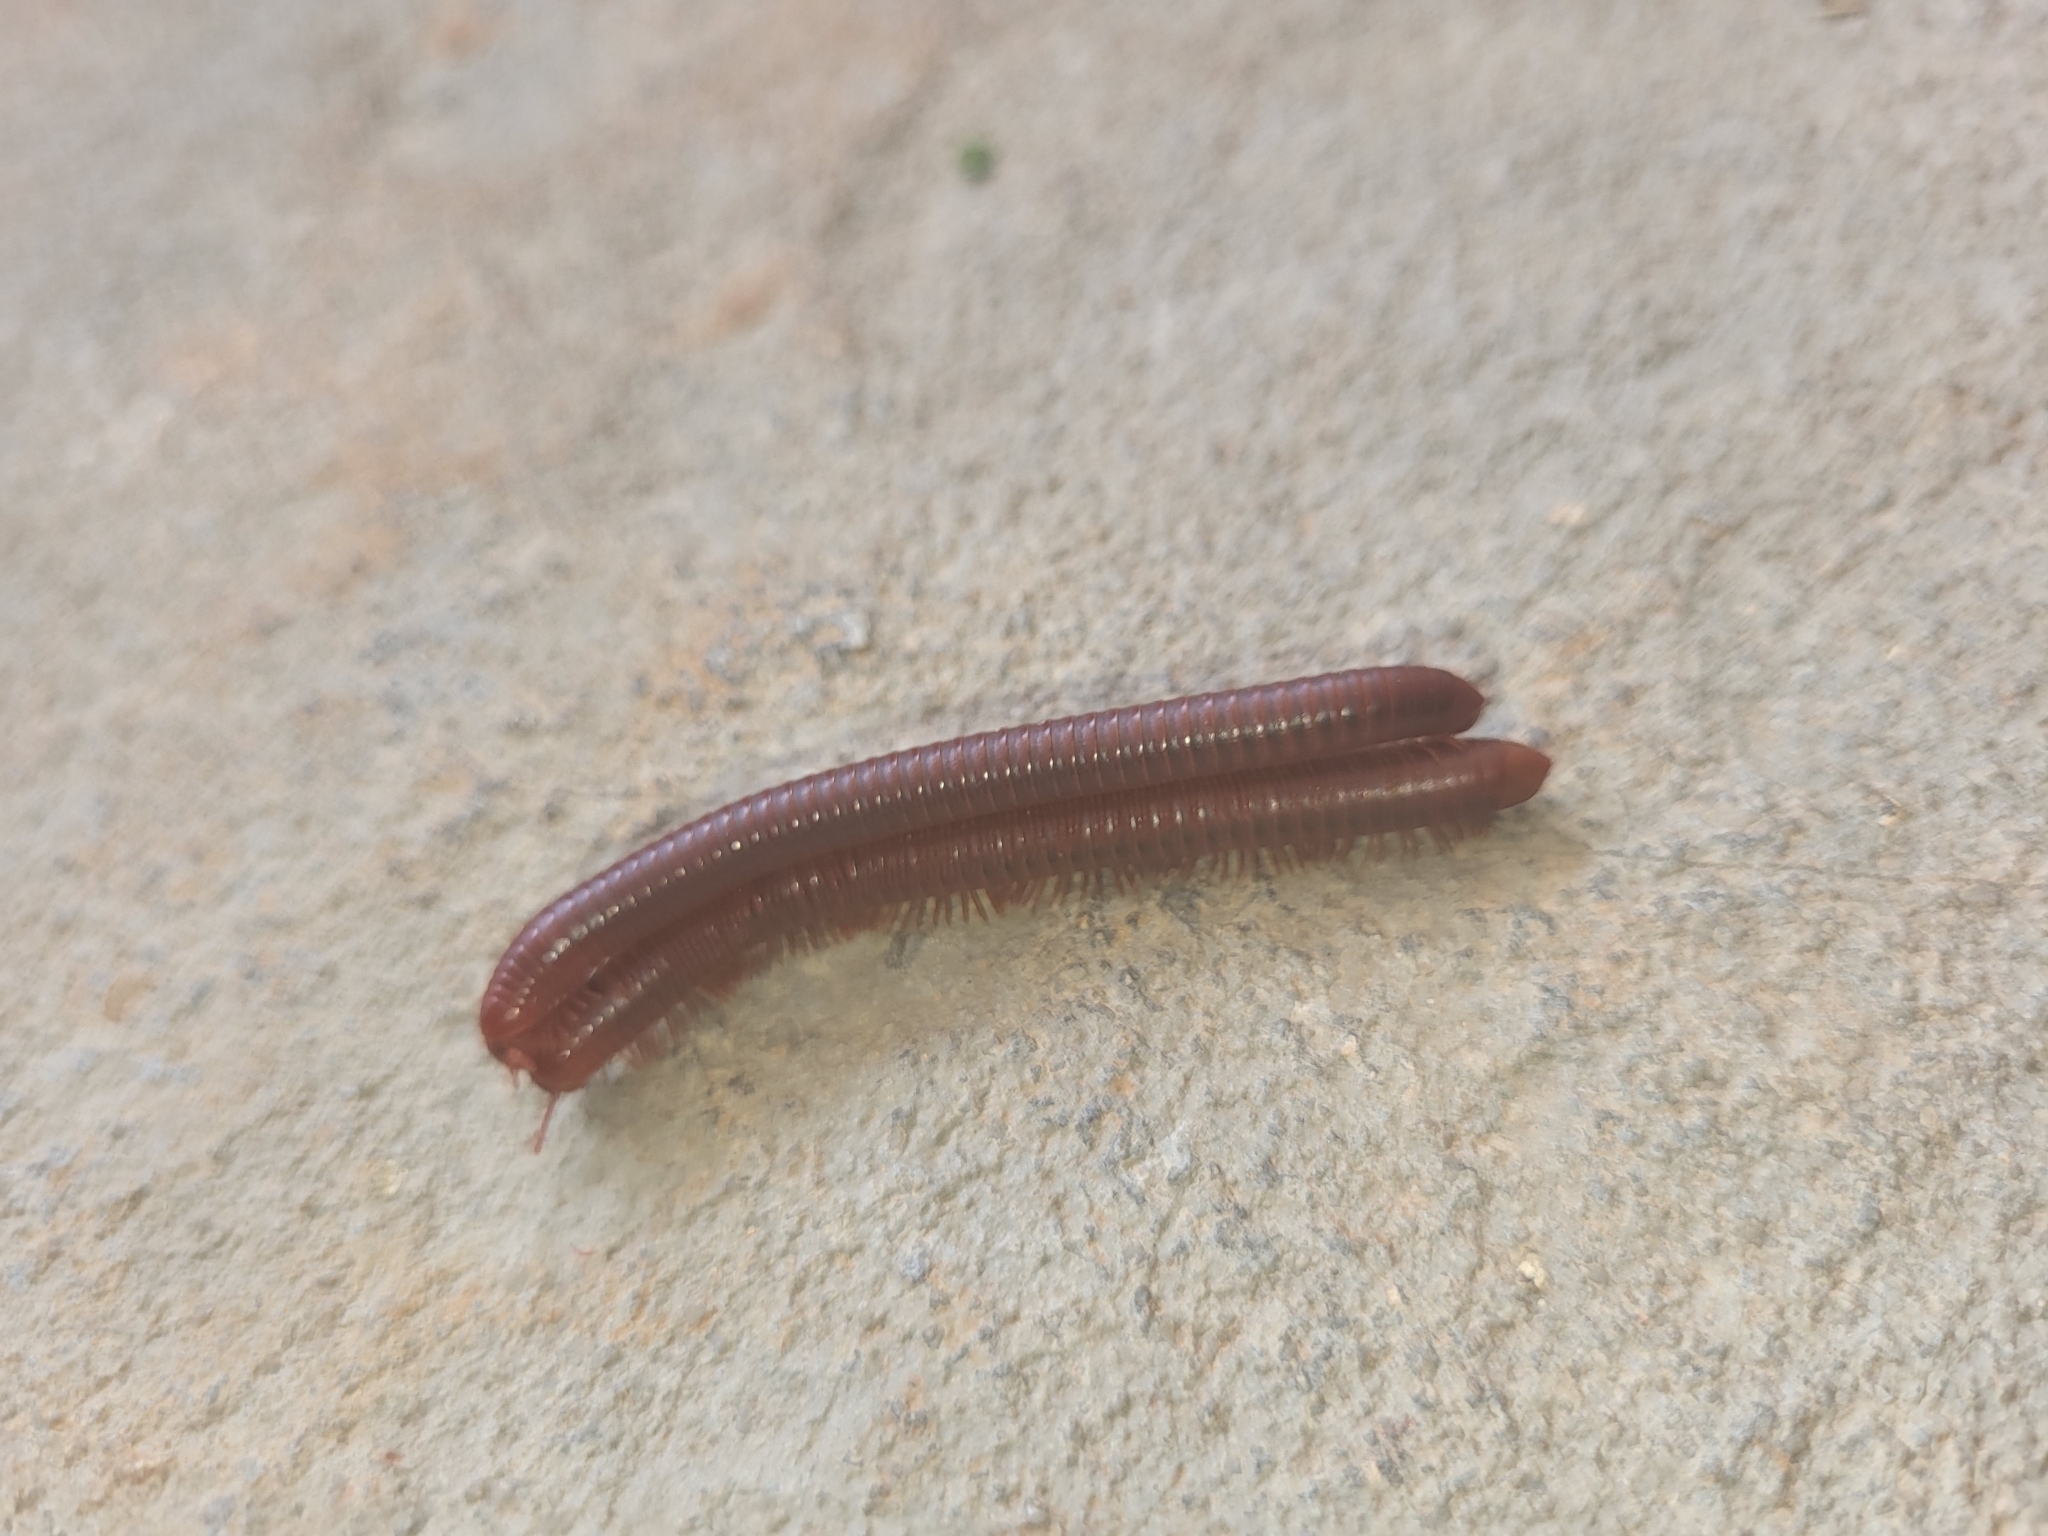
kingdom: Animalia
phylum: Arthropoda
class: Diplopoda
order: Spirobolida
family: Pachybolidae
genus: Trigoniulus
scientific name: Trigoniulus corallinus
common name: Millipede
